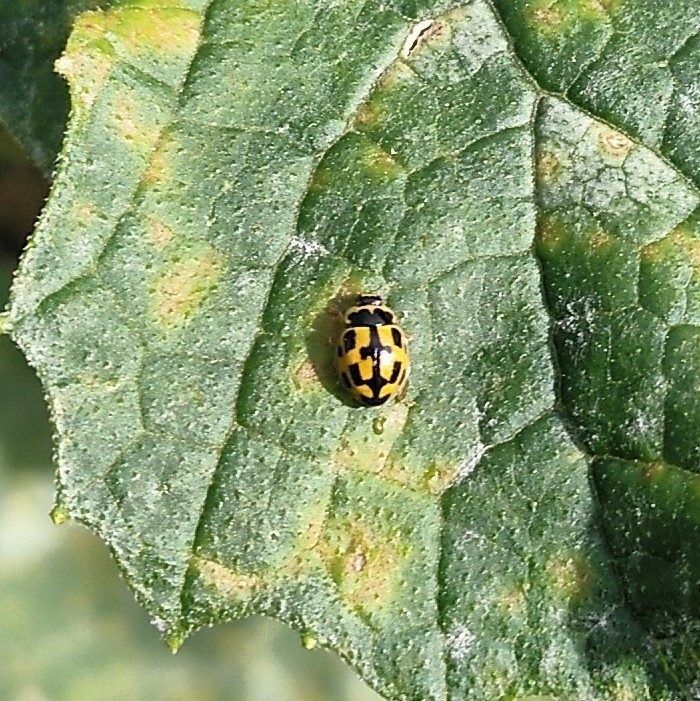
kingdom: Animalia
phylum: Arthropoda
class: Insecta
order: Coleoptera
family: Coccinellidae
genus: Propylaea
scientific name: Propylaea quatuordecimpunctata
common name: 14-spotted ladybird beetle
